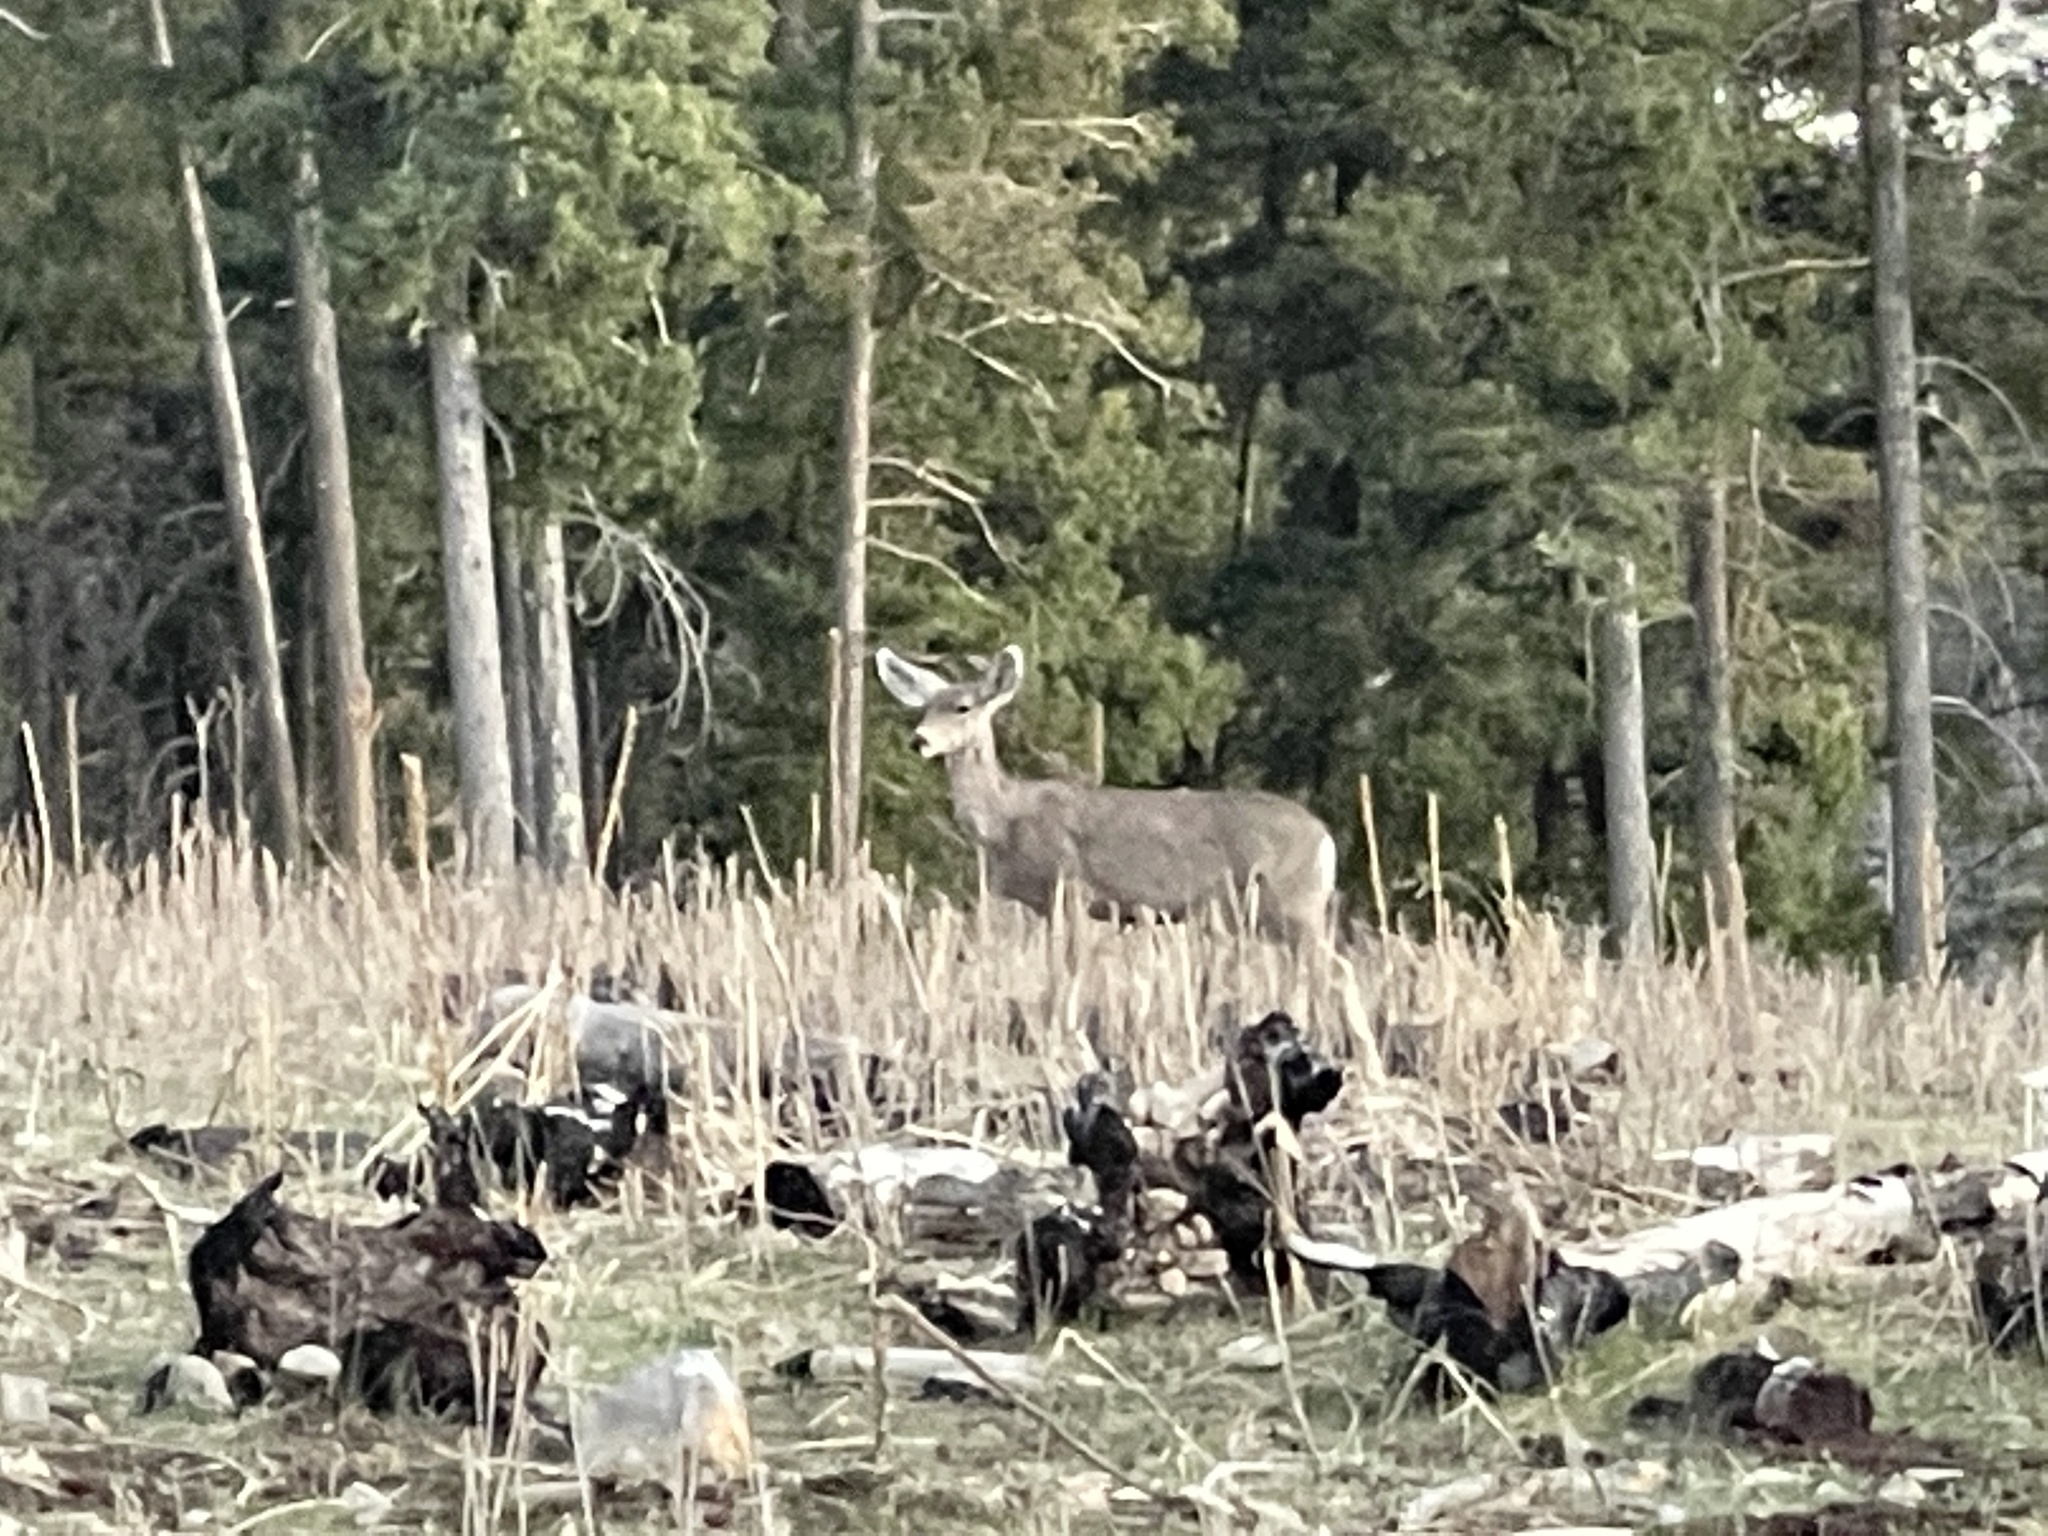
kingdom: Animalia
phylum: Chordata
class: Mammalia
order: Artiodactyla
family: Cervidae
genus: Odocoileus
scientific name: Odocoileus hemionus
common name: Mule deer
